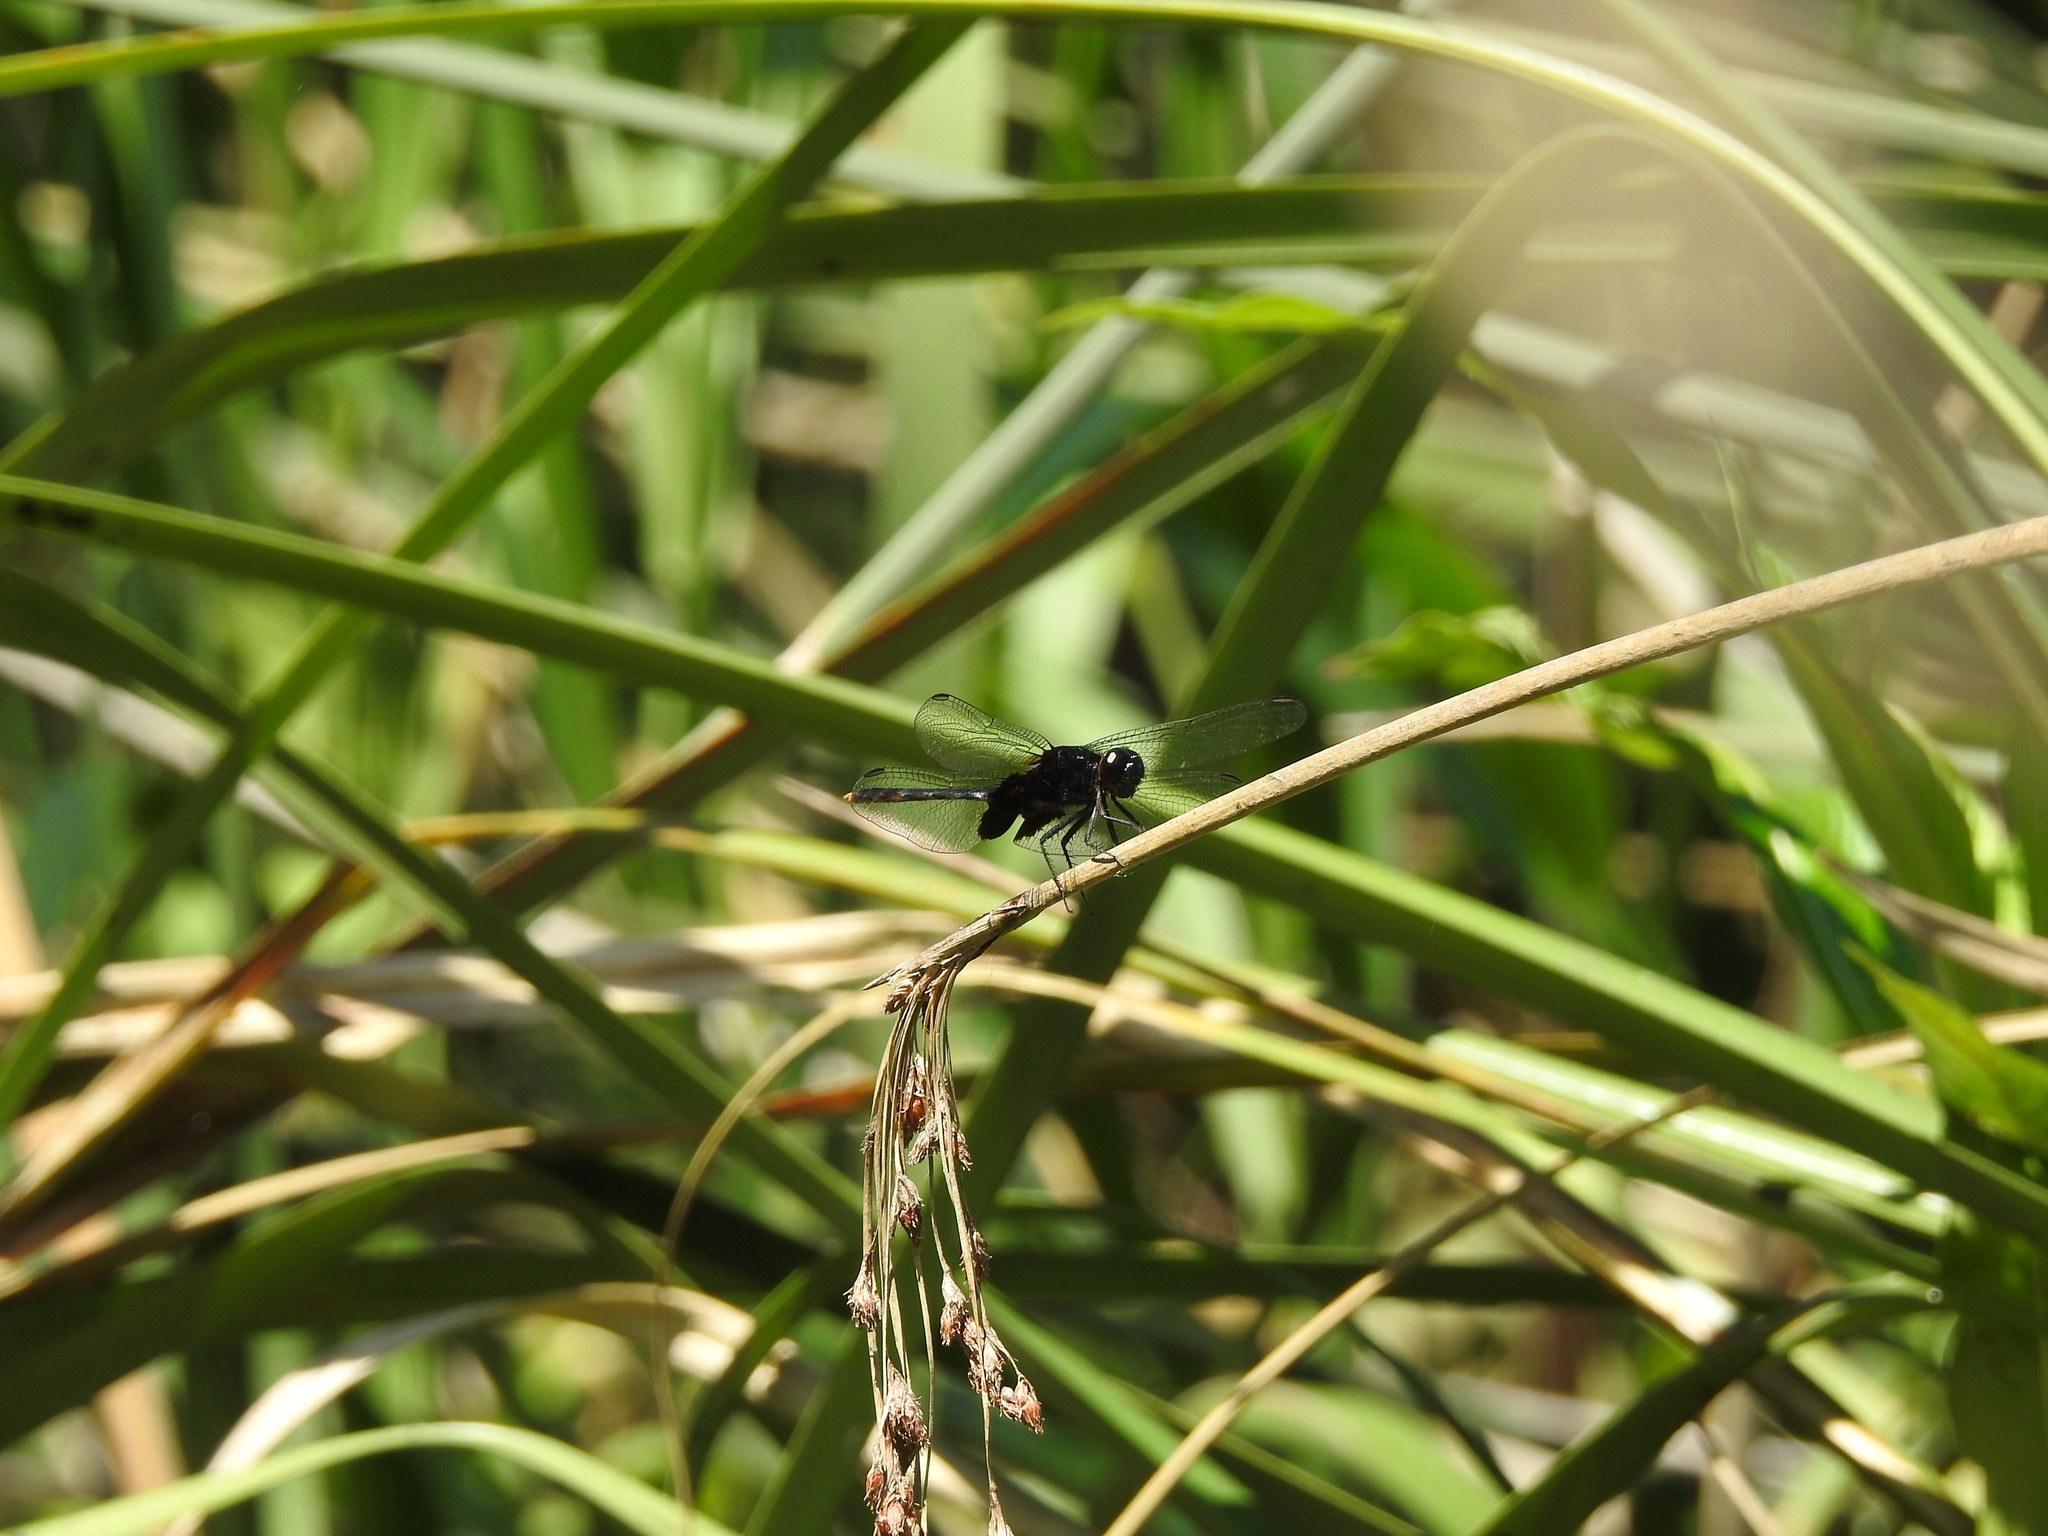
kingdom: Animalia
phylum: Arthropoda
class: Insecta
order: Odonata
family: Libellulidae
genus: Erythemis
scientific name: Erythemis attala
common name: Black pondhawk
